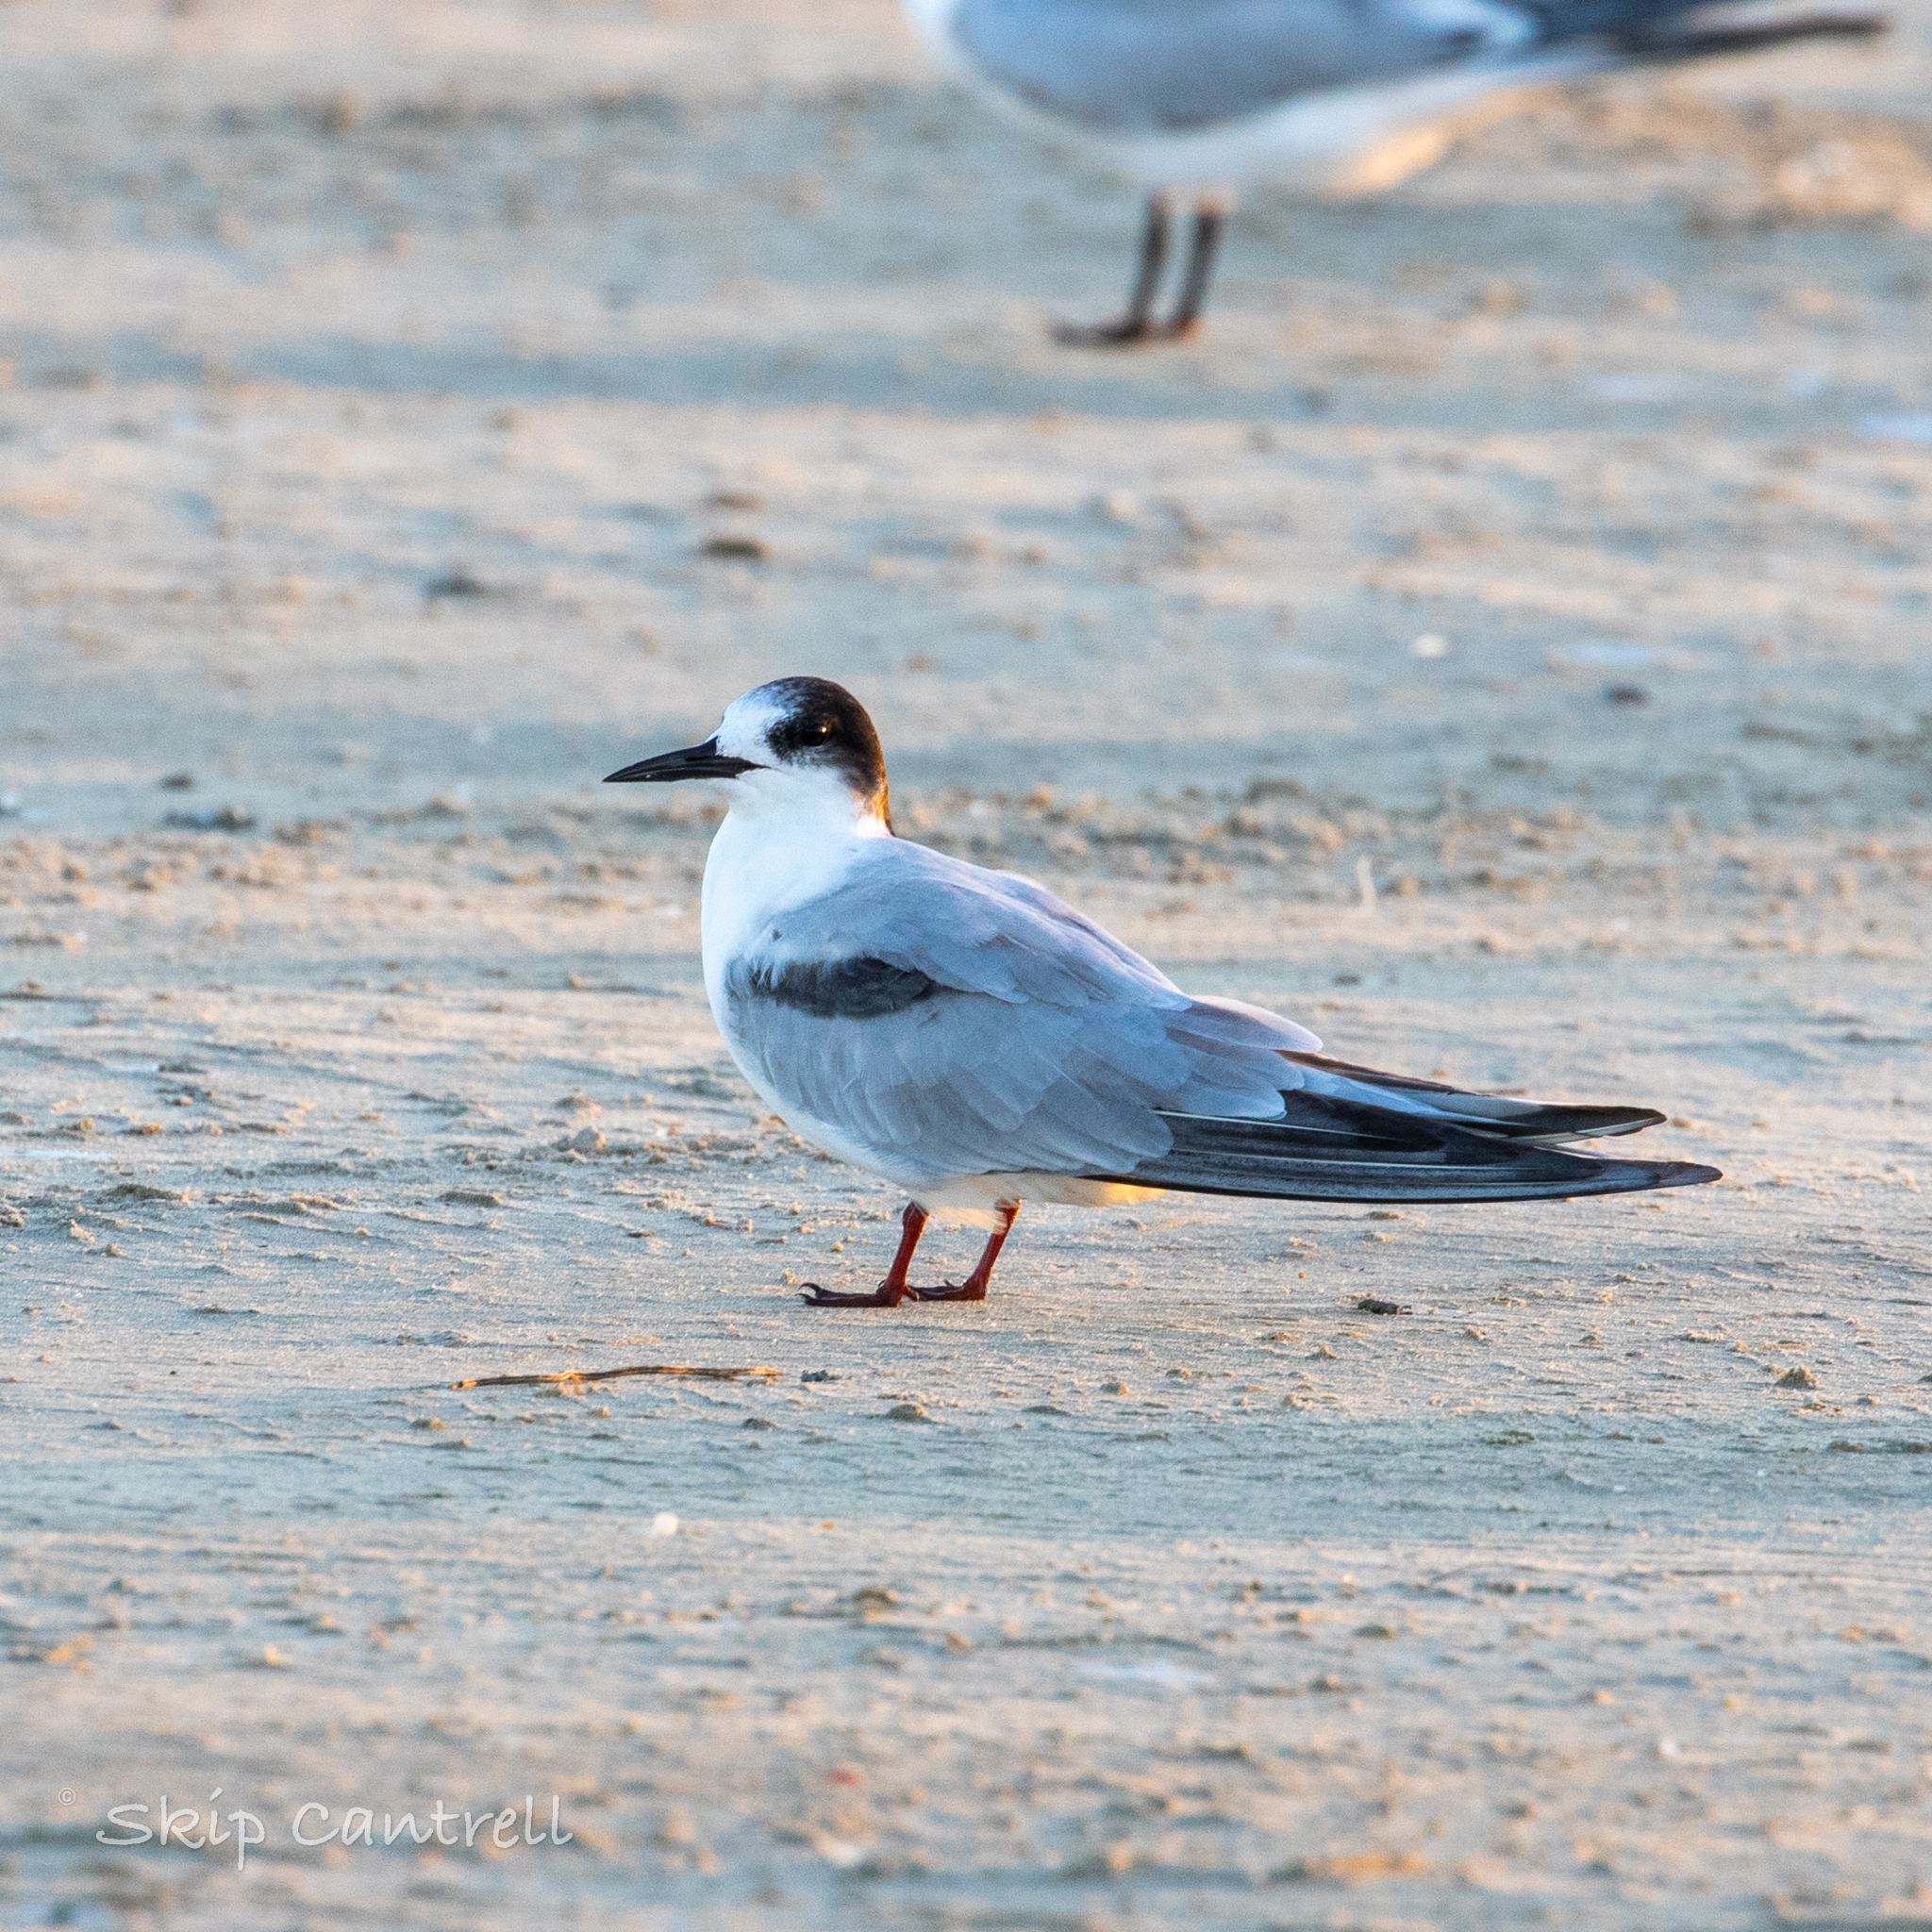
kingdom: Animalia
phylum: Chordata
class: Aves
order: Charadriiformes
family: Laridae
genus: Sterna
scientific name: Sterna hirundo
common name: Common tern
